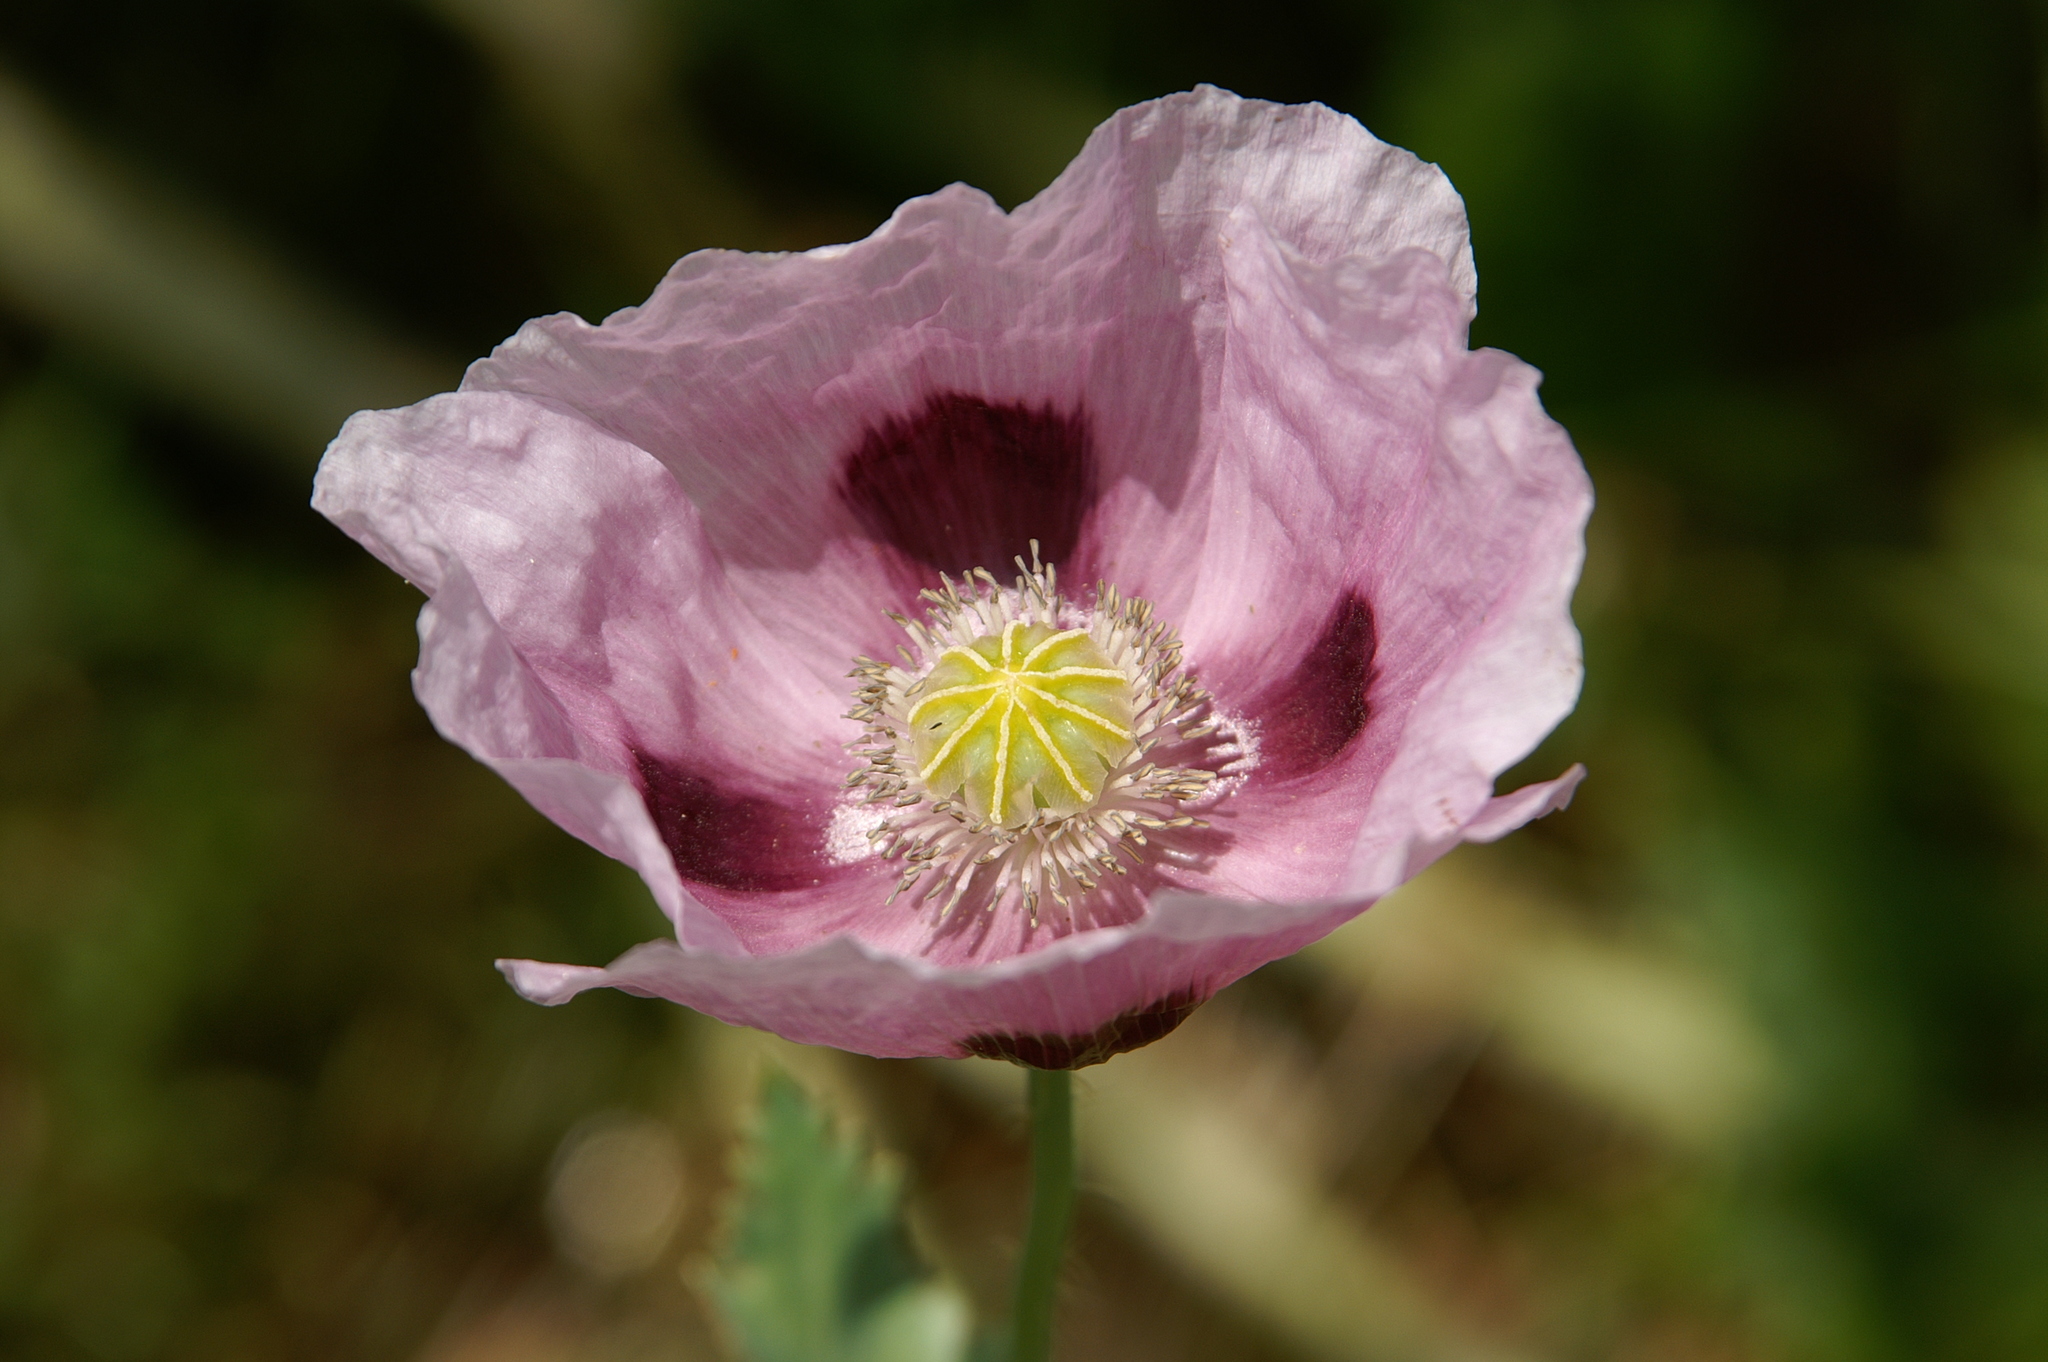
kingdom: Plantae
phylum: Tracheophyta
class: Magnoliopsida
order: Ranunculales
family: Papaveraceae
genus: Papaver
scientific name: Papaver somniferum
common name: Opium poppy
